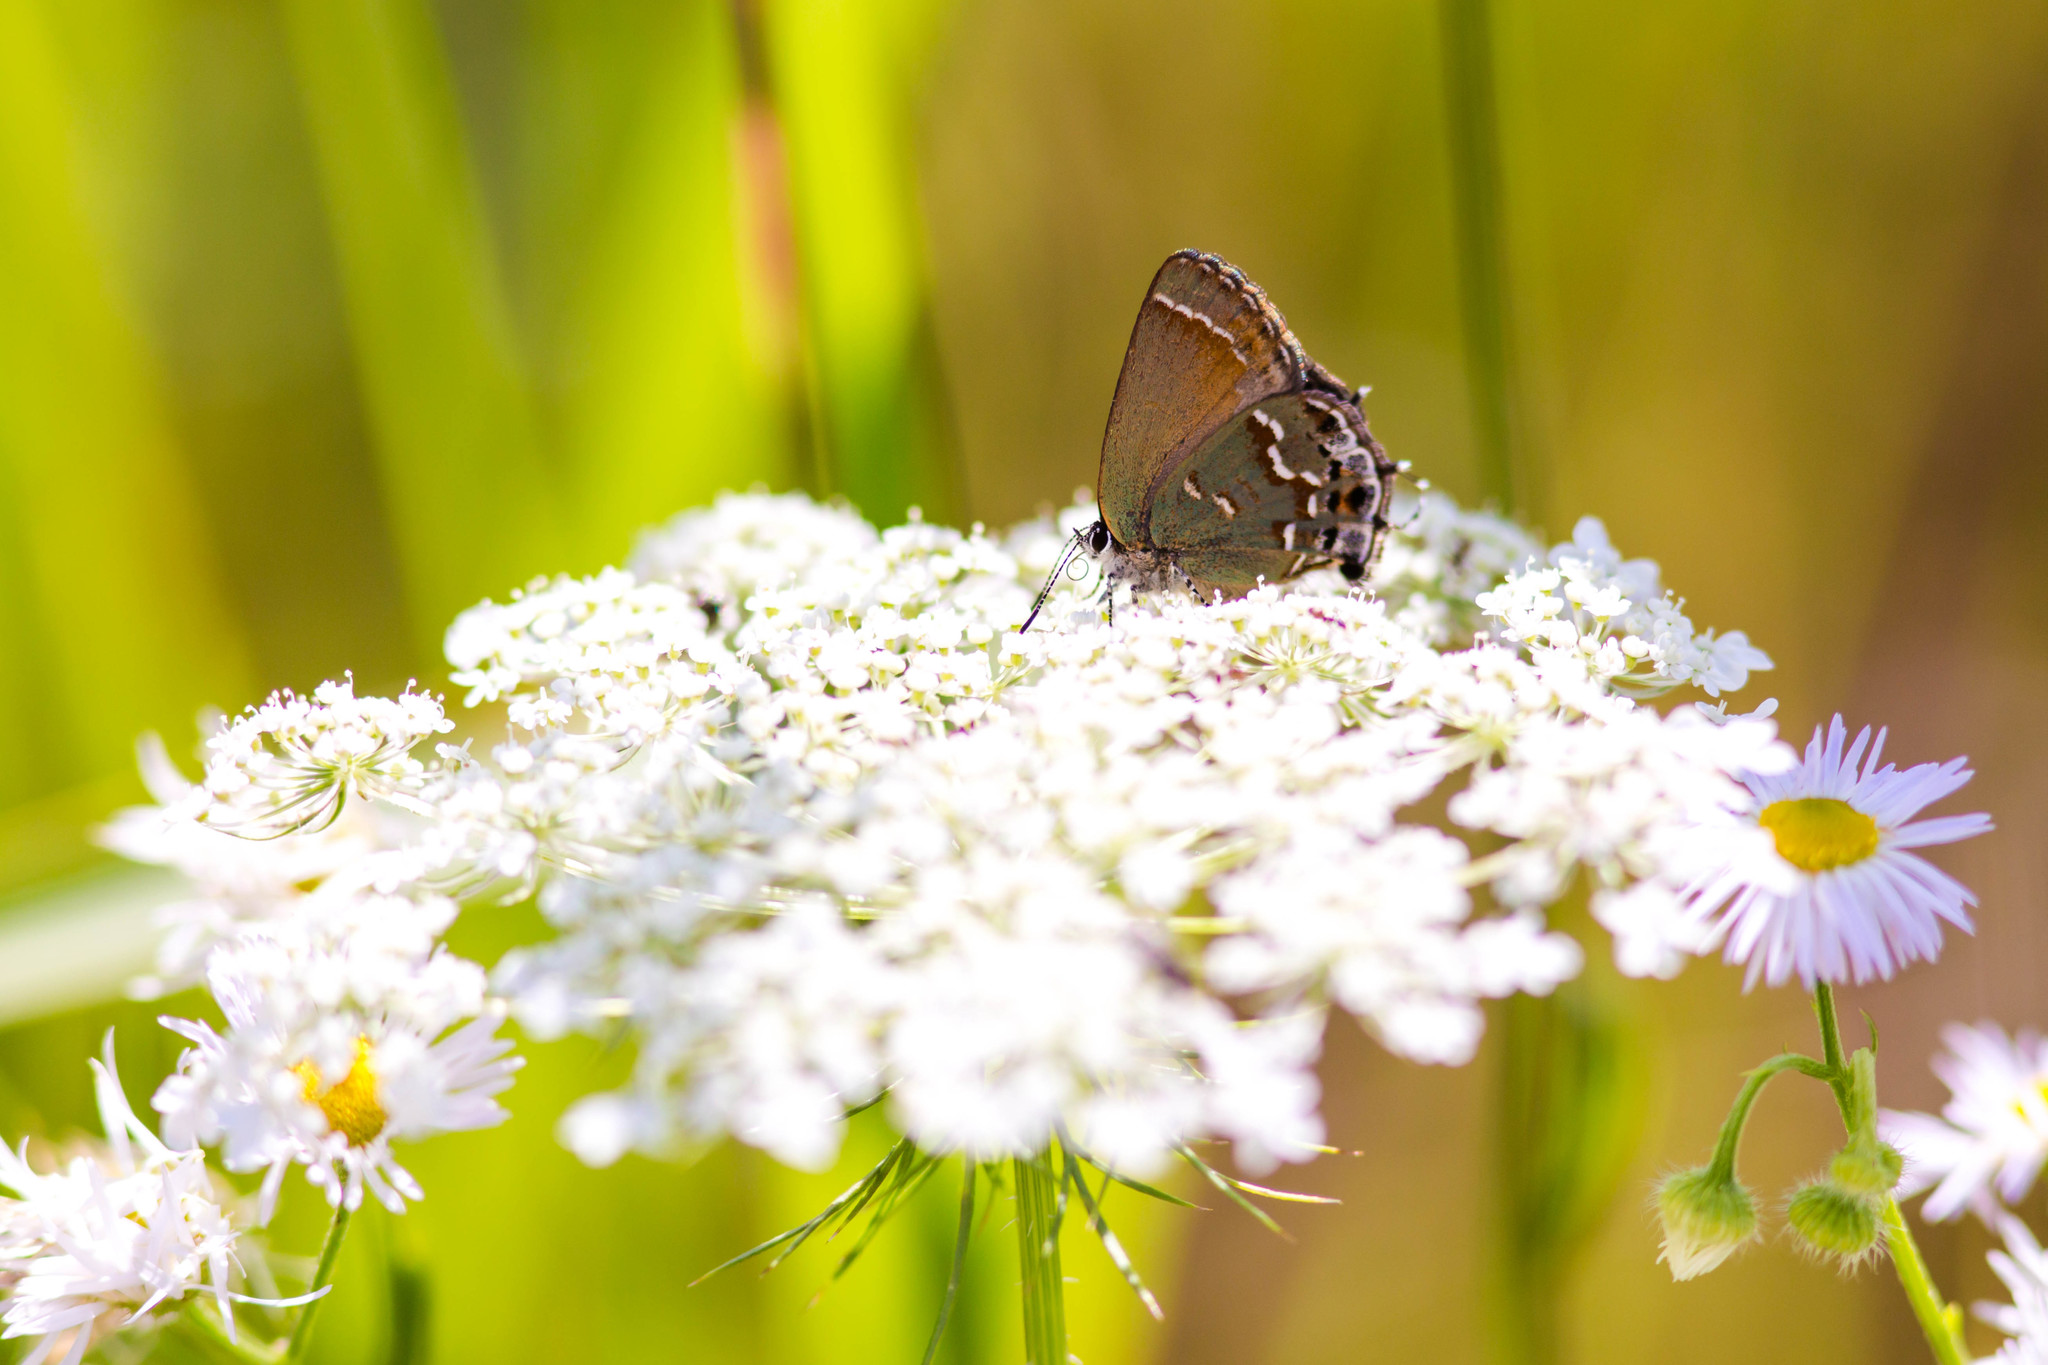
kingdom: Animalia
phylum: Arthropoda
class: Insecta
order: Lepidoptera
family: Lycaenidae
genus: Mitoura
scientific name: Mitoura gryneus
